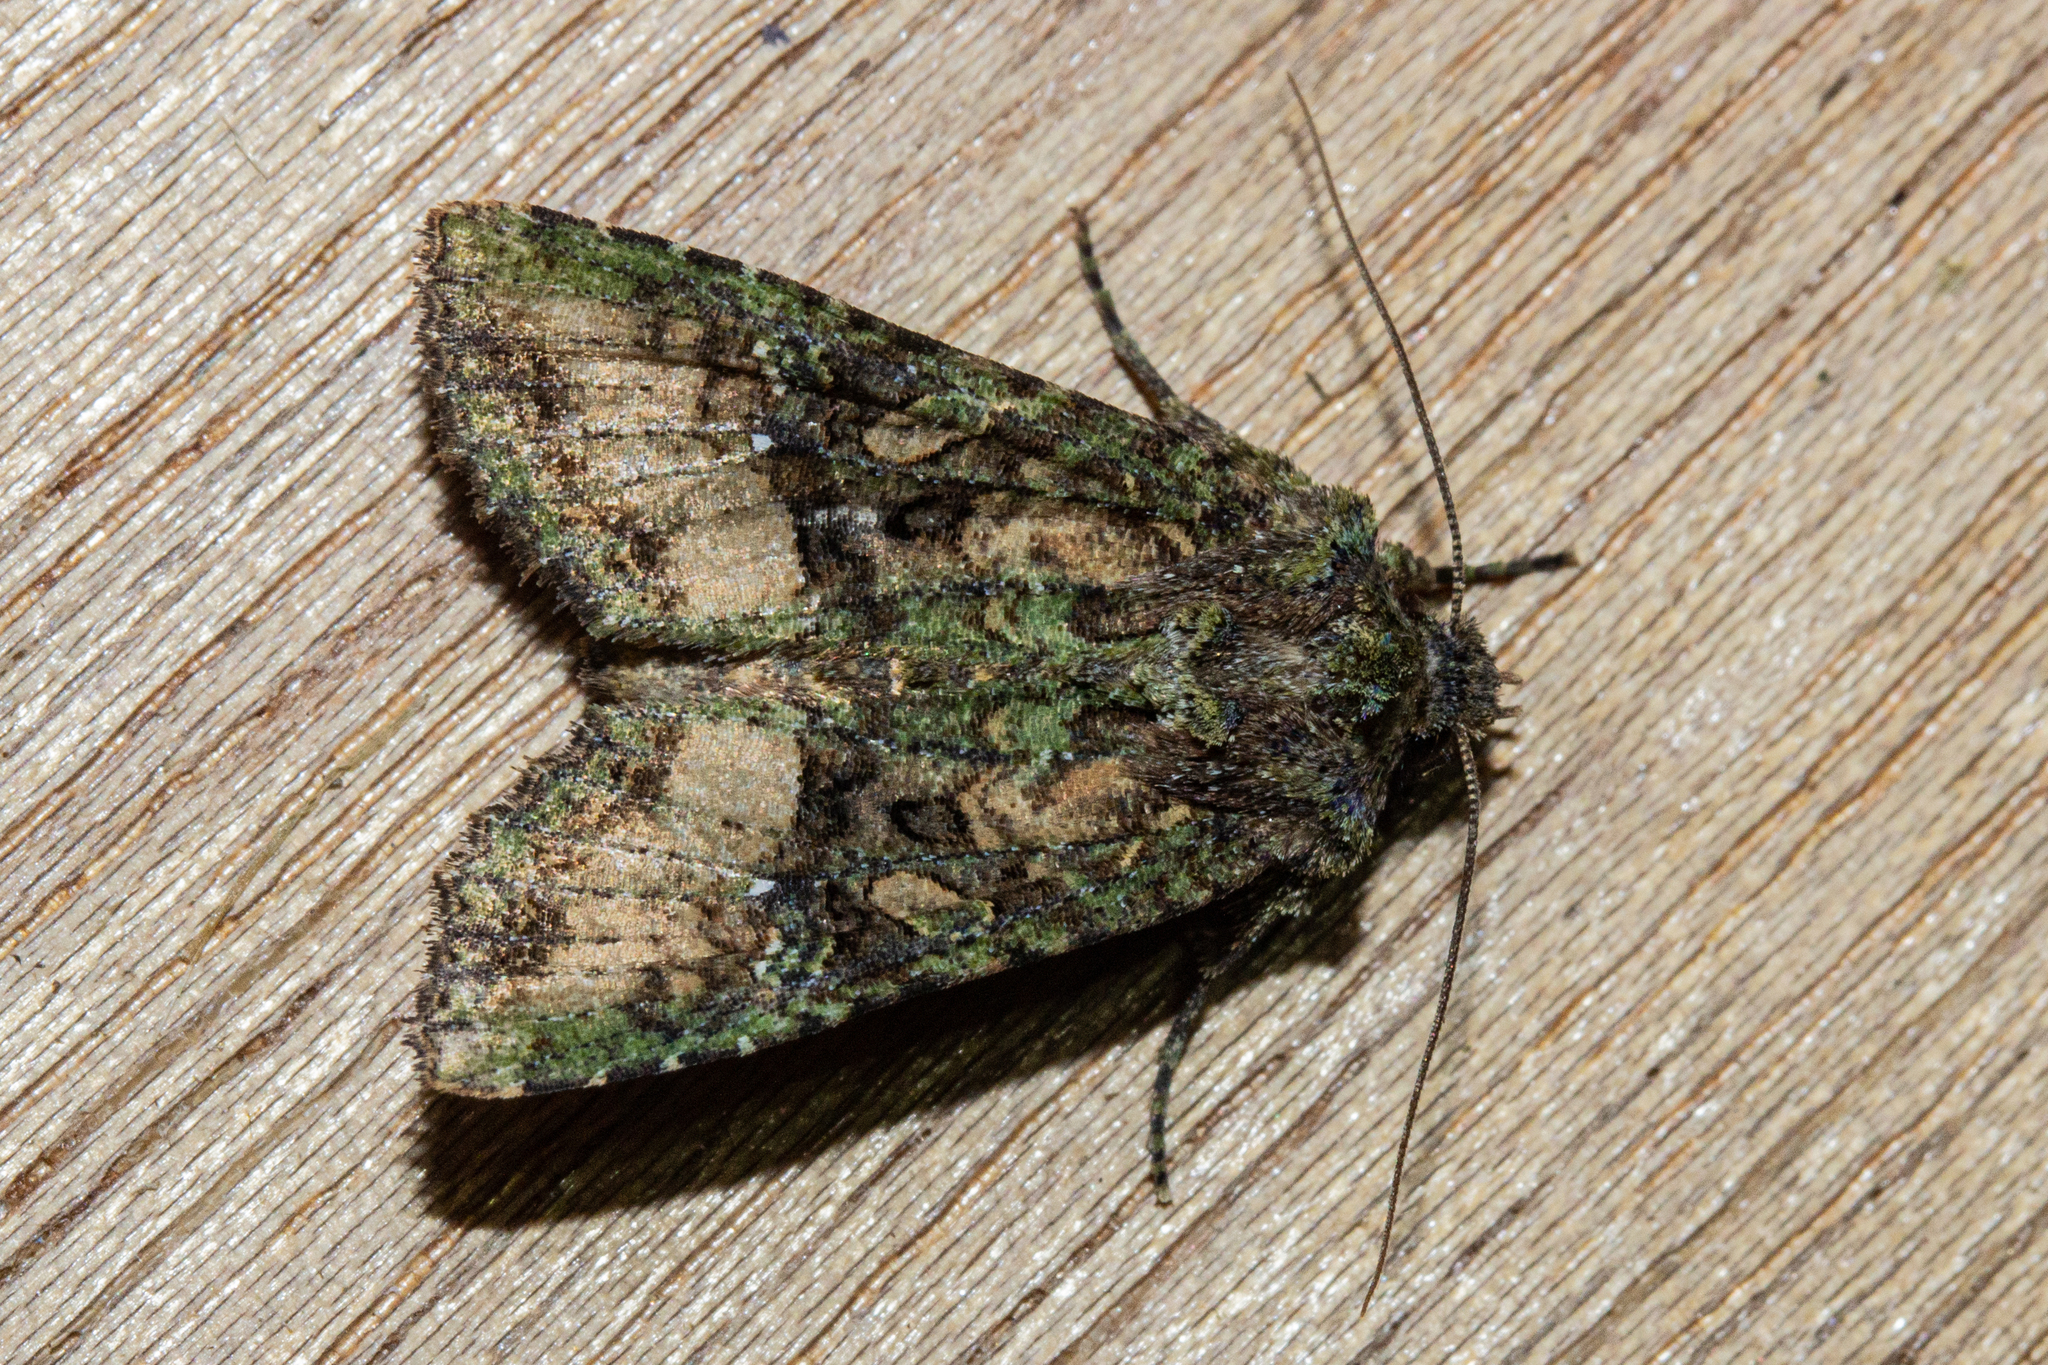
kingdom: Animalia
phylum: Arthropoda
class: Insecta
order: Lepidoptera
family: Noctuidae
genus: Meterana
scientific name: Meterana
